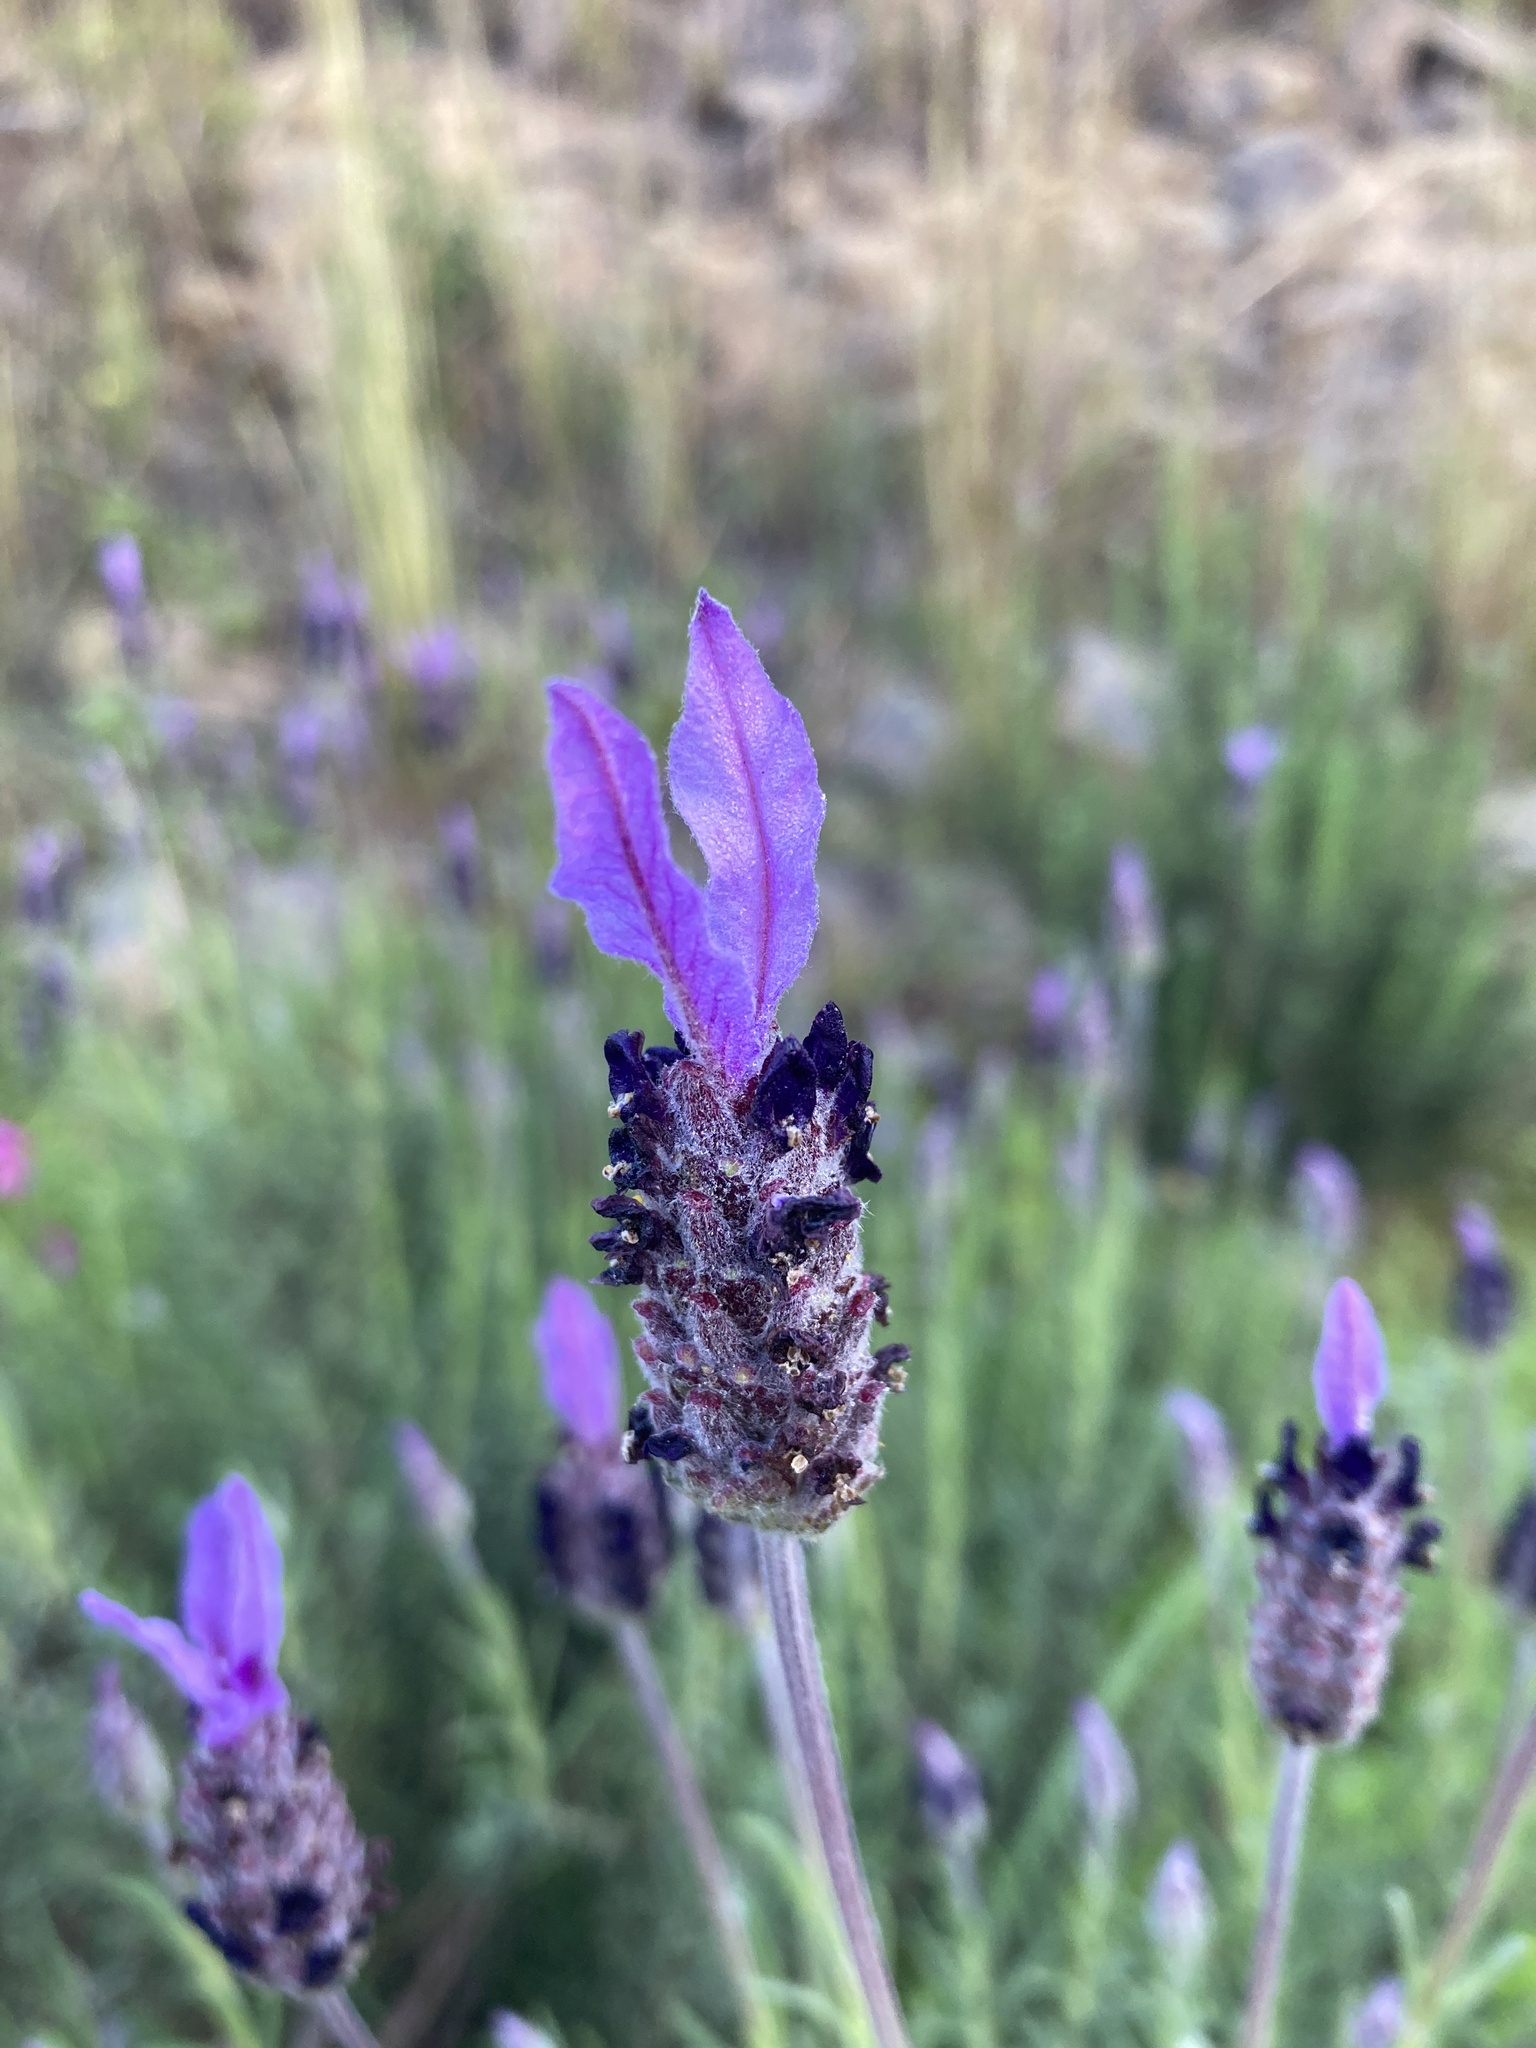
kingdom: Plantae
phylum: Tracheophyta
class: Magnoliopsida
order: Lamiales
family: Lamiaceae
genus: Lavandula
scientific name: Lavandula pedunculata
